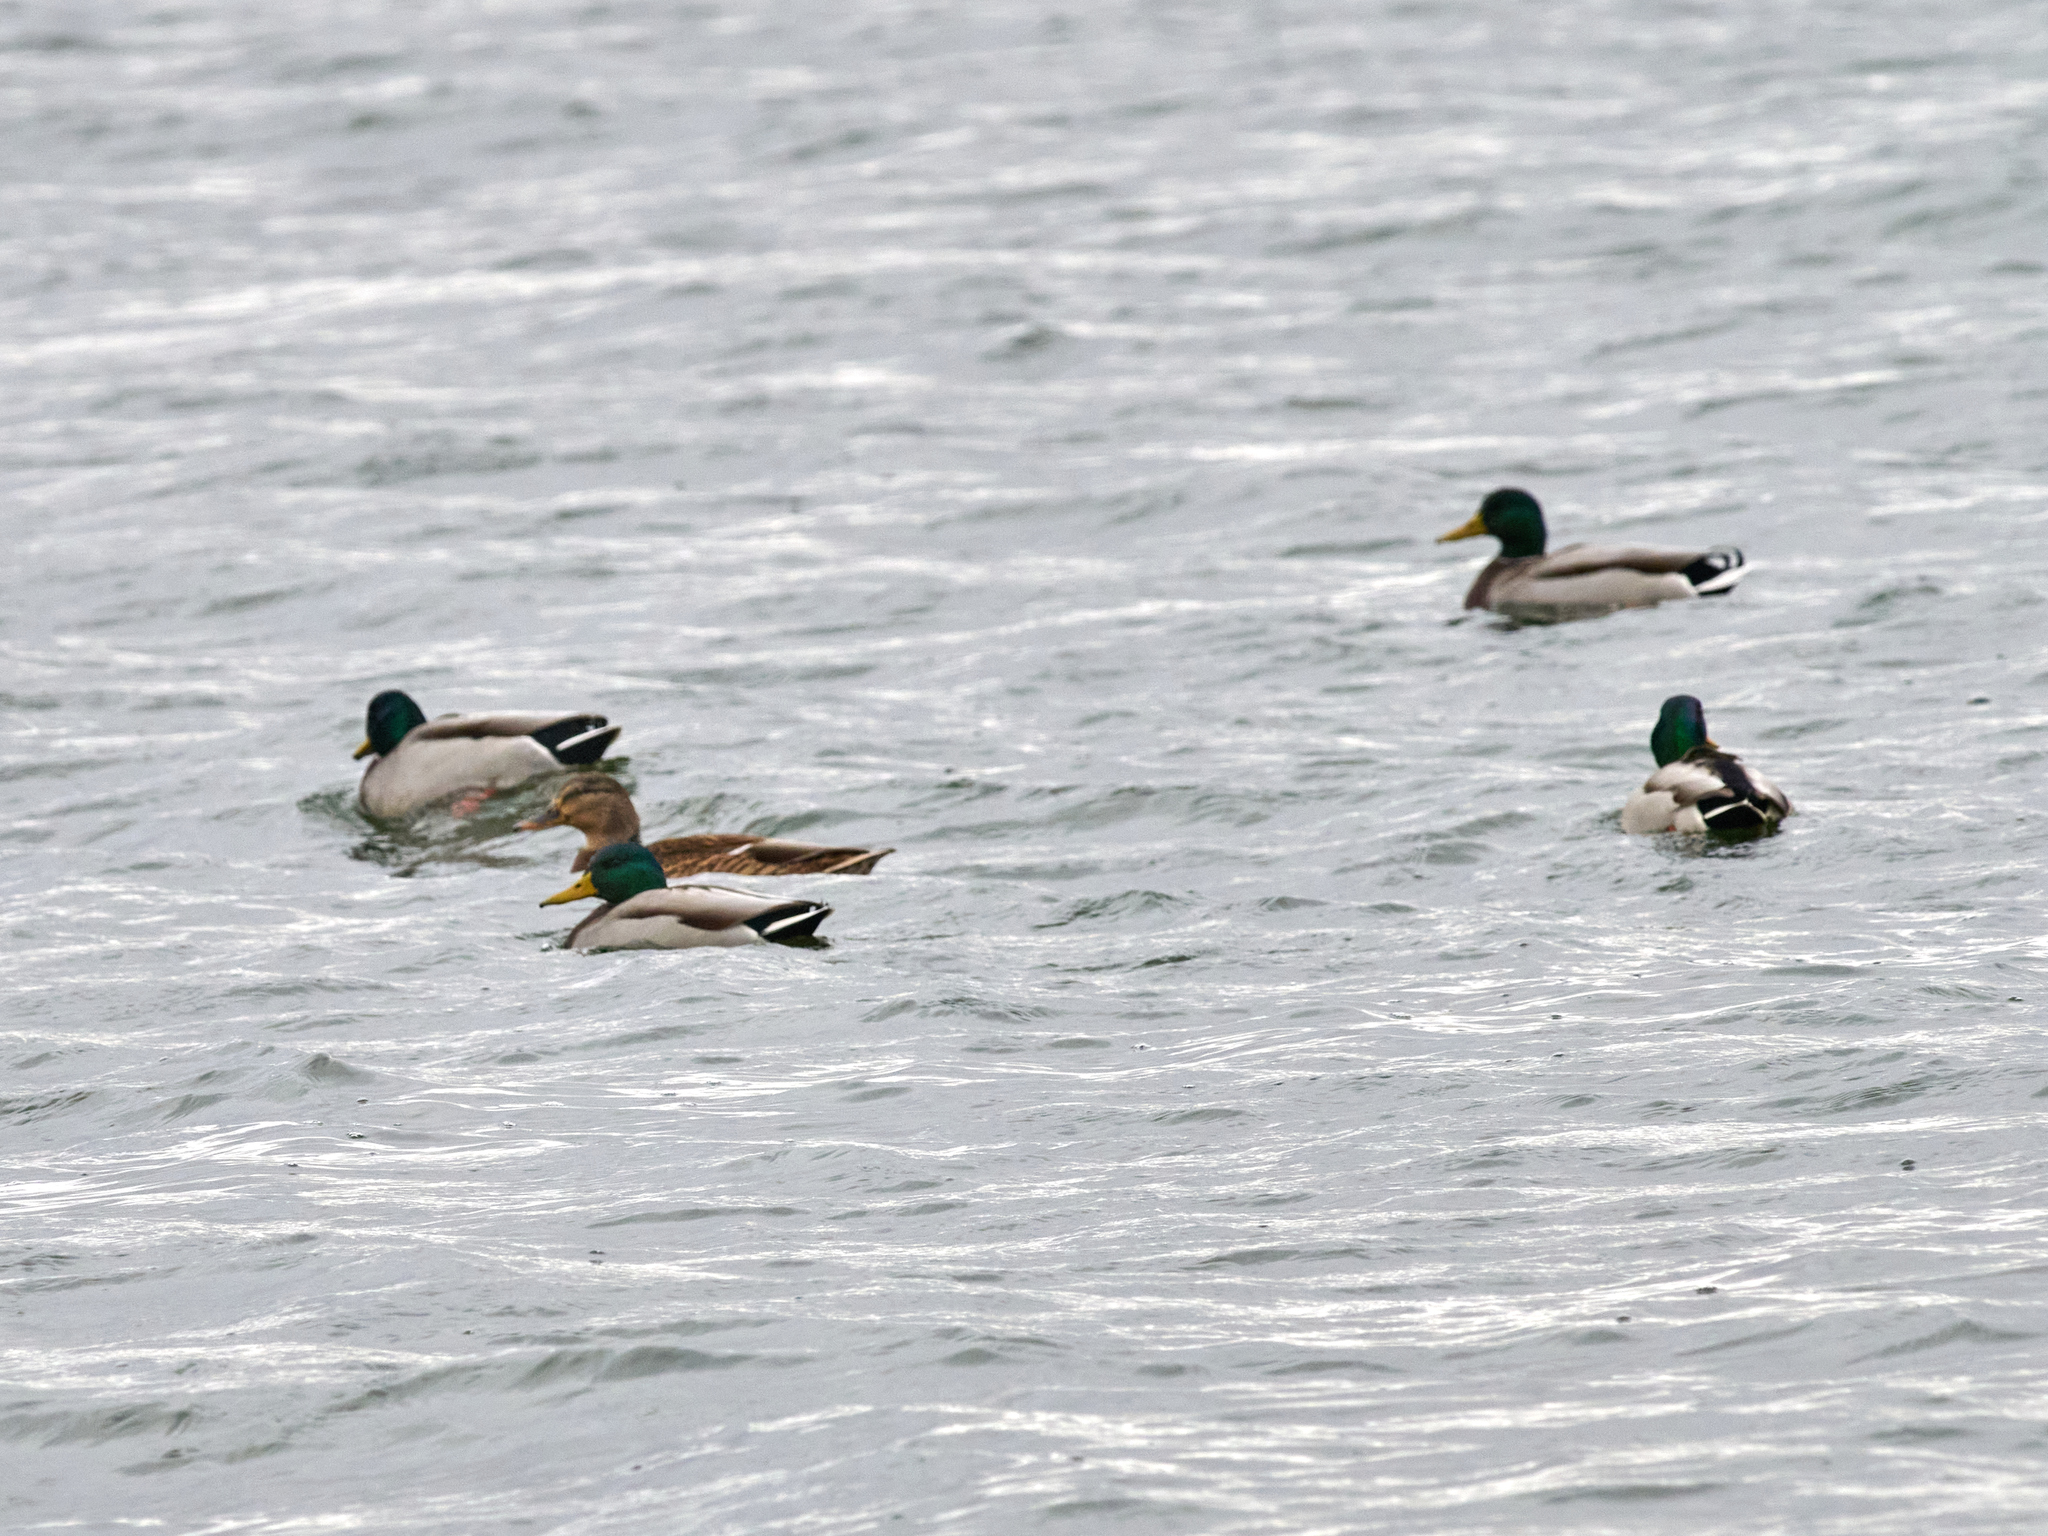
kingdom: Animalia
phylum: Chordata
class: Aves
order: Anseriformes
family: Anatidae
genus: Anas
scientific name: Anas platyrhynchos
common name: Mallard
